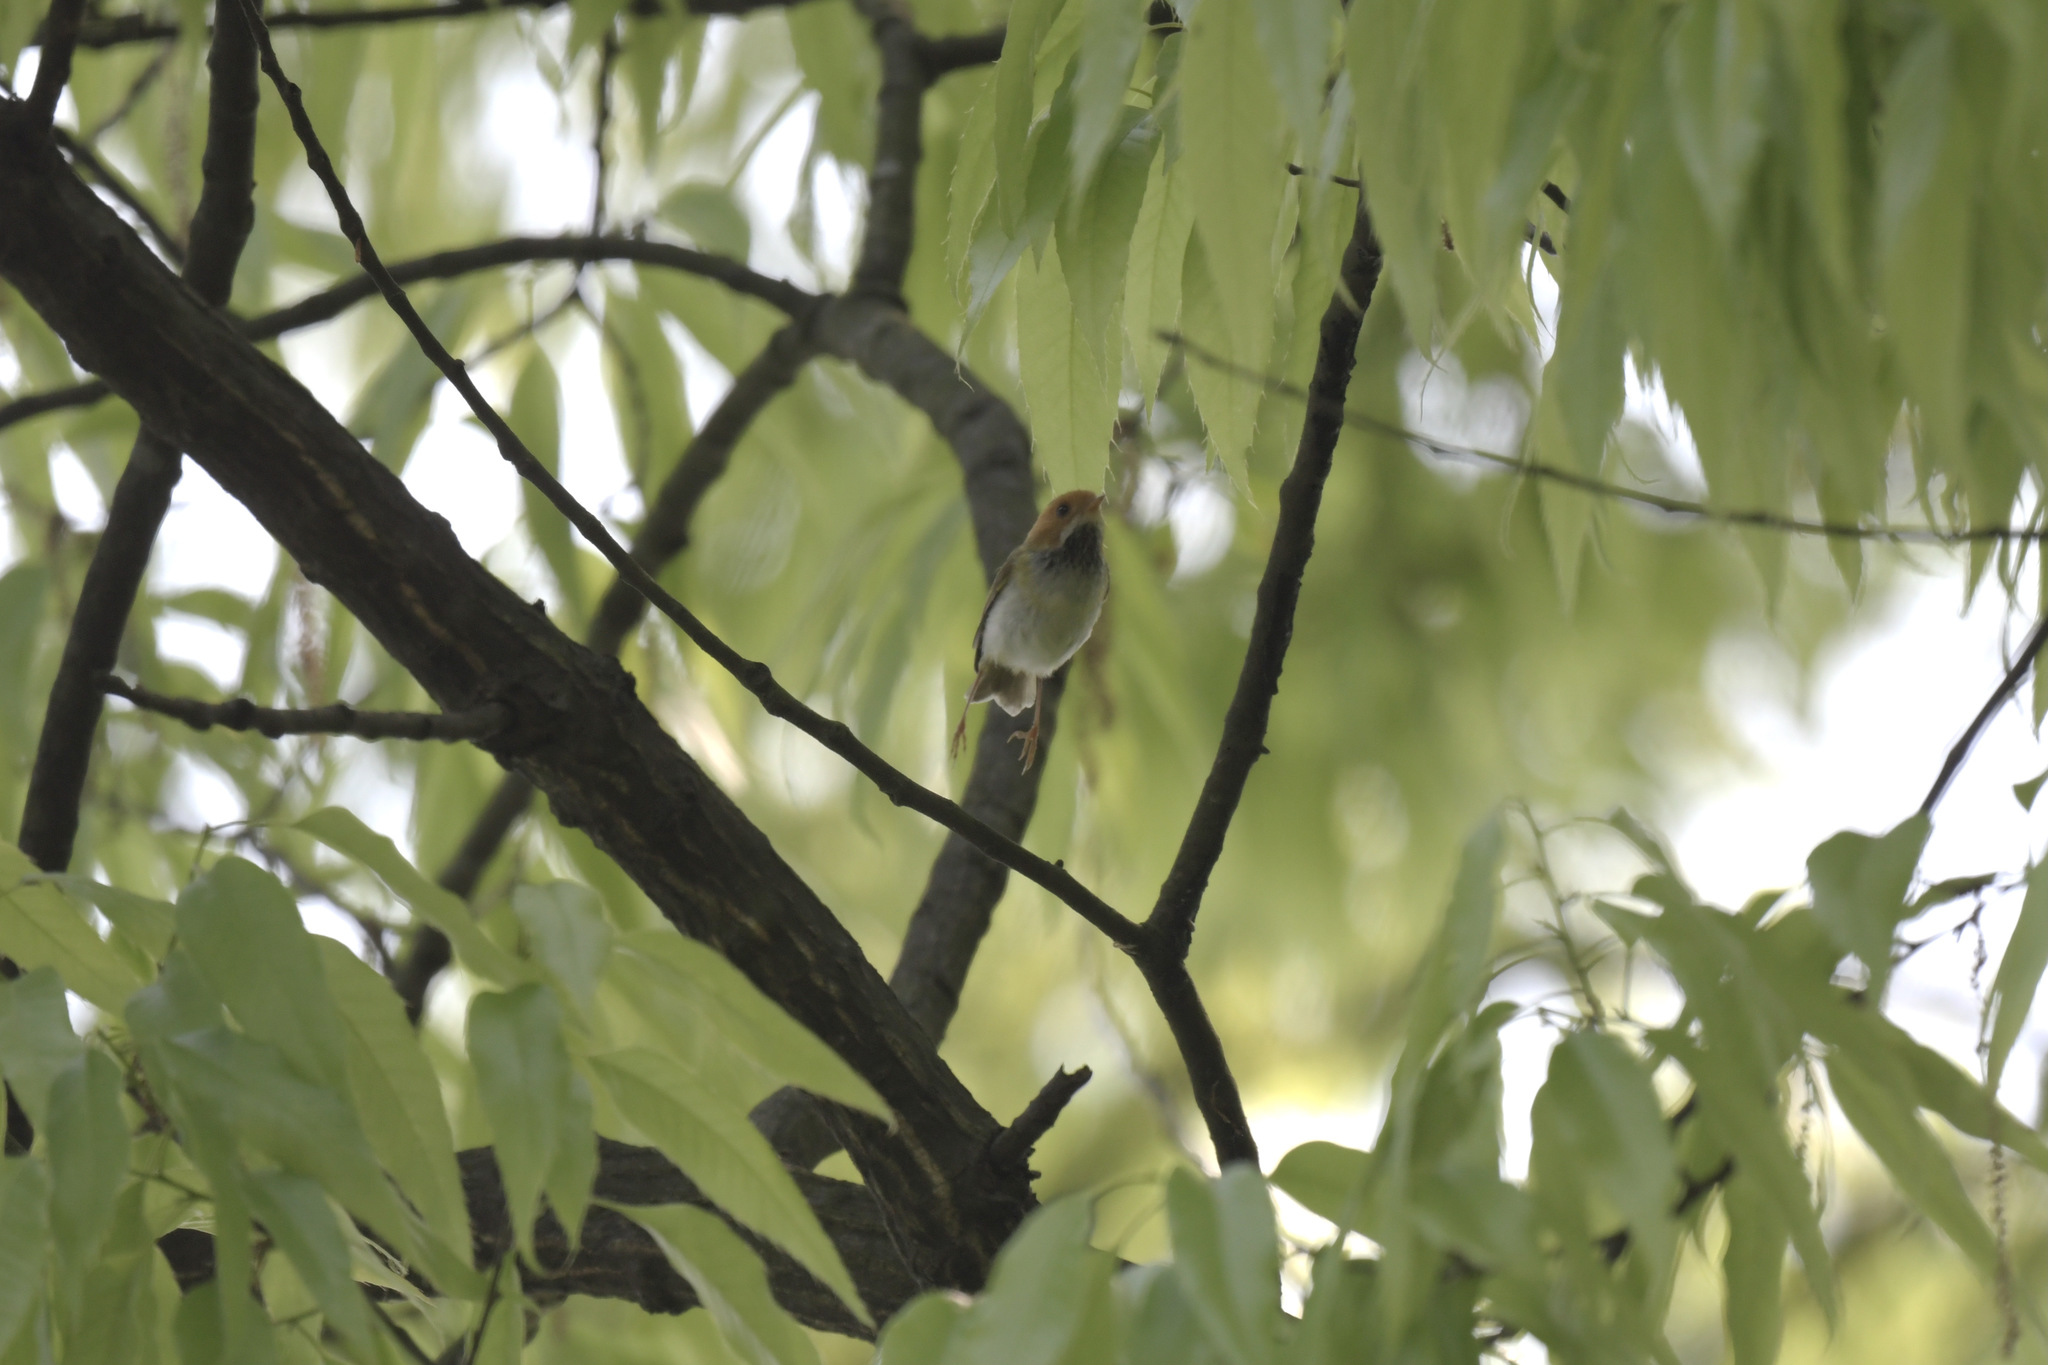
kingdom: Animalia
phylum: Chordata
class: Aves
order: Passeriformes
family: Cettiidae
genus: Abroscopus
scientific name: Abroscopus albogularis
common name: Rufous-faced warbler
